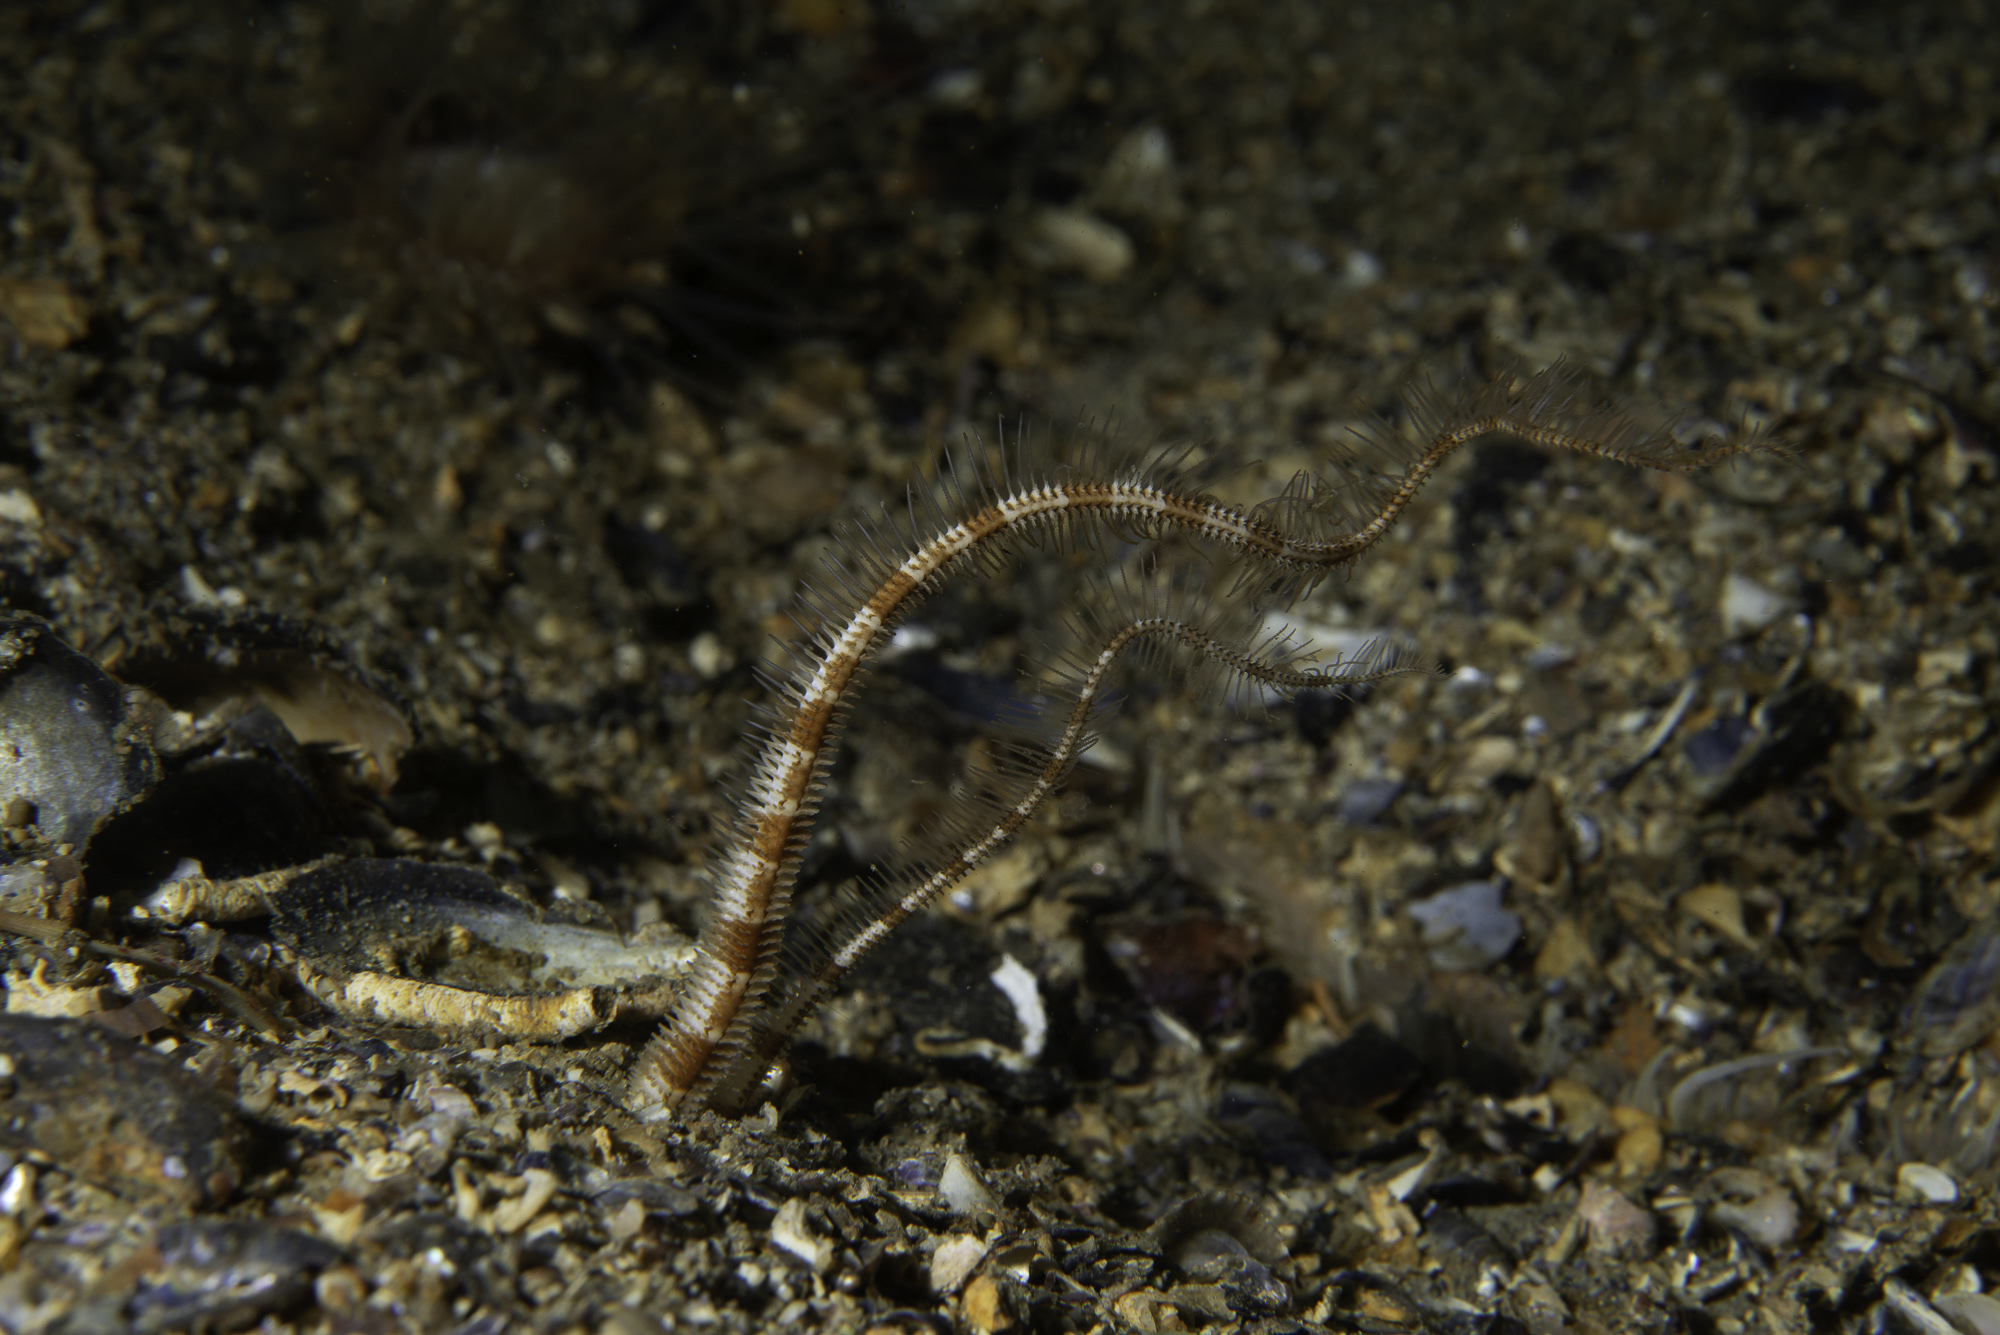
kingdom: Animalia
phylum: Echinodermata
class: Ophiuroidea
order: Amphilepidida
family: Ophiopsilidae
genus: Ophiopsila
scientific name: Ophiopsila annulosa
